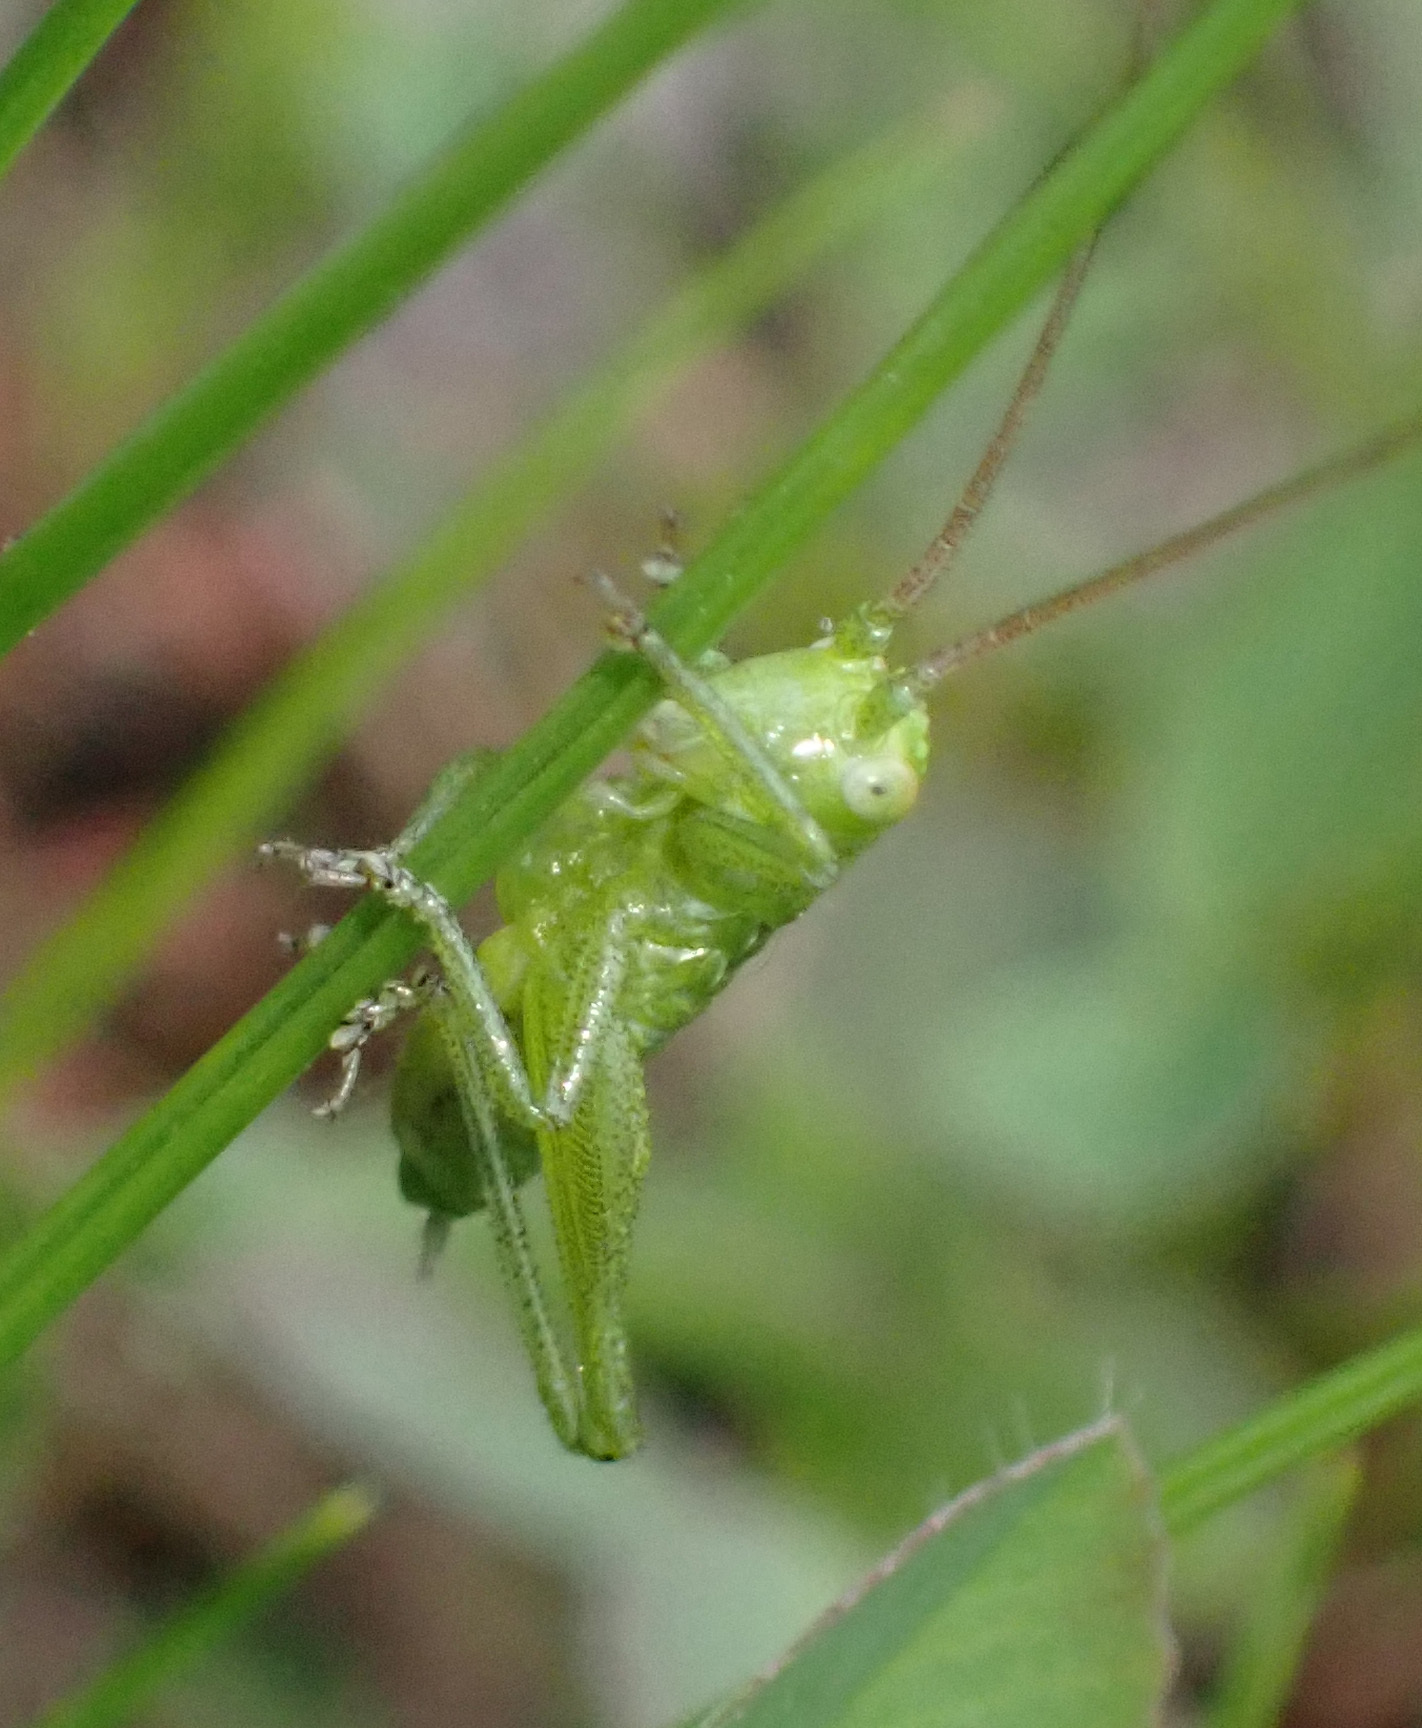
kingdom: Animalia
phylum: Arthropoda
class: Insecta
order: Orthoptera
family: Tettigoniidae
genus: Tettigonia
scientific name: Tettigonia viridissima
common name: Great green bush-cricket
